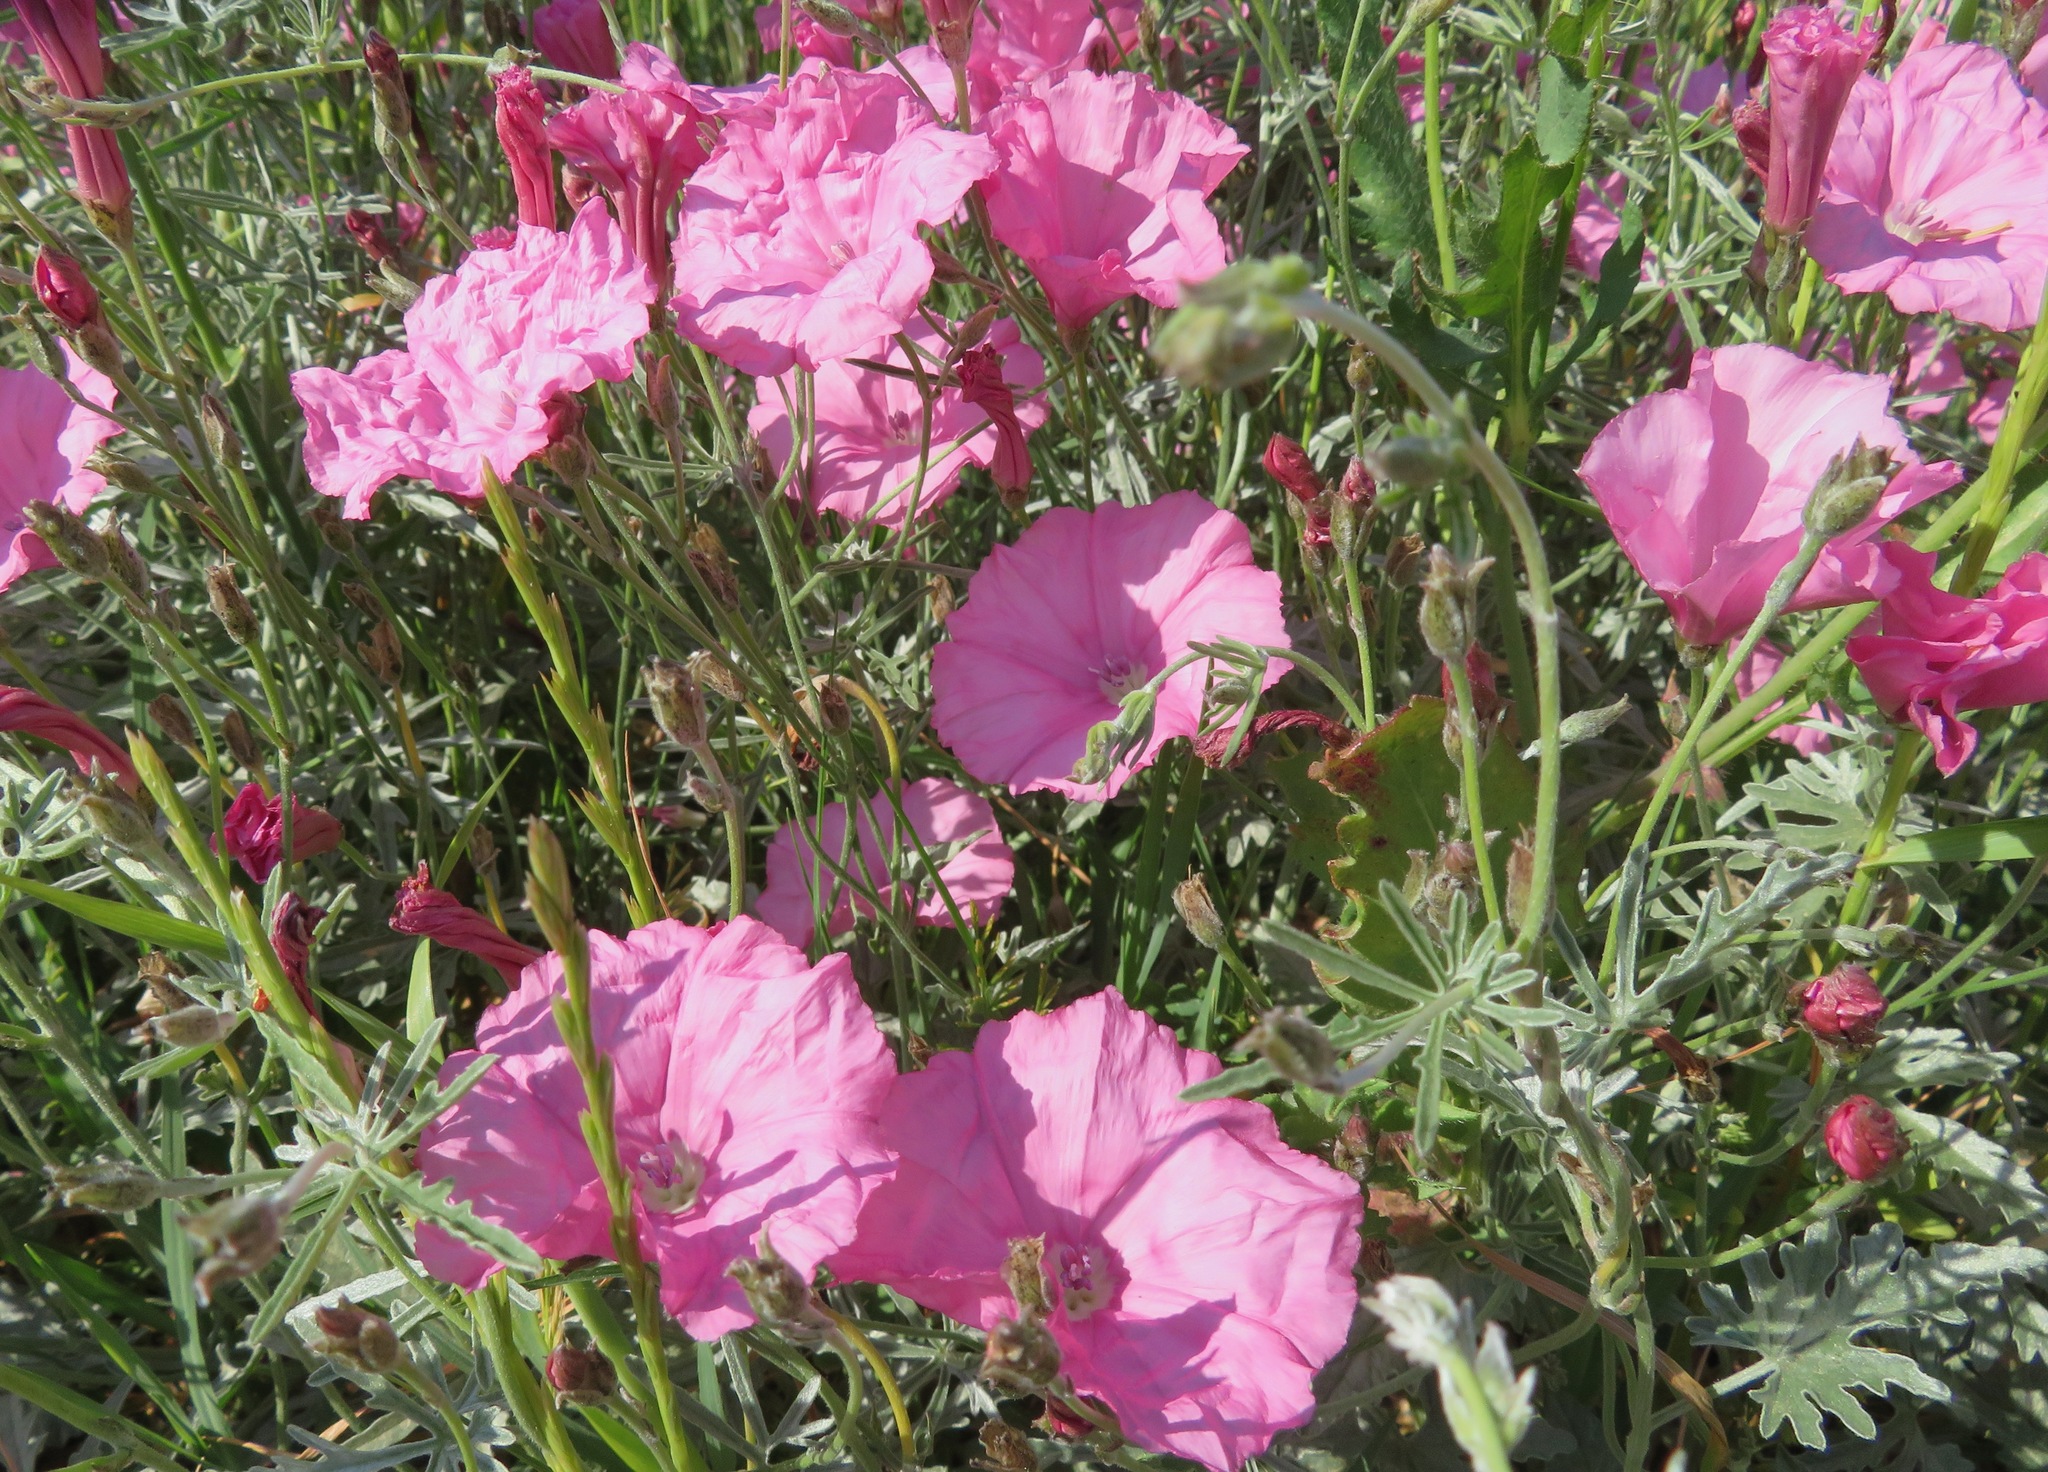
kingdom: Plantae
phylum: Tracheophyta
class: Magnoliopsida
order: Solanales
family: Convolvulaceae
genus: Convolvulus
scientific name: Convolvulus elegantissimus
